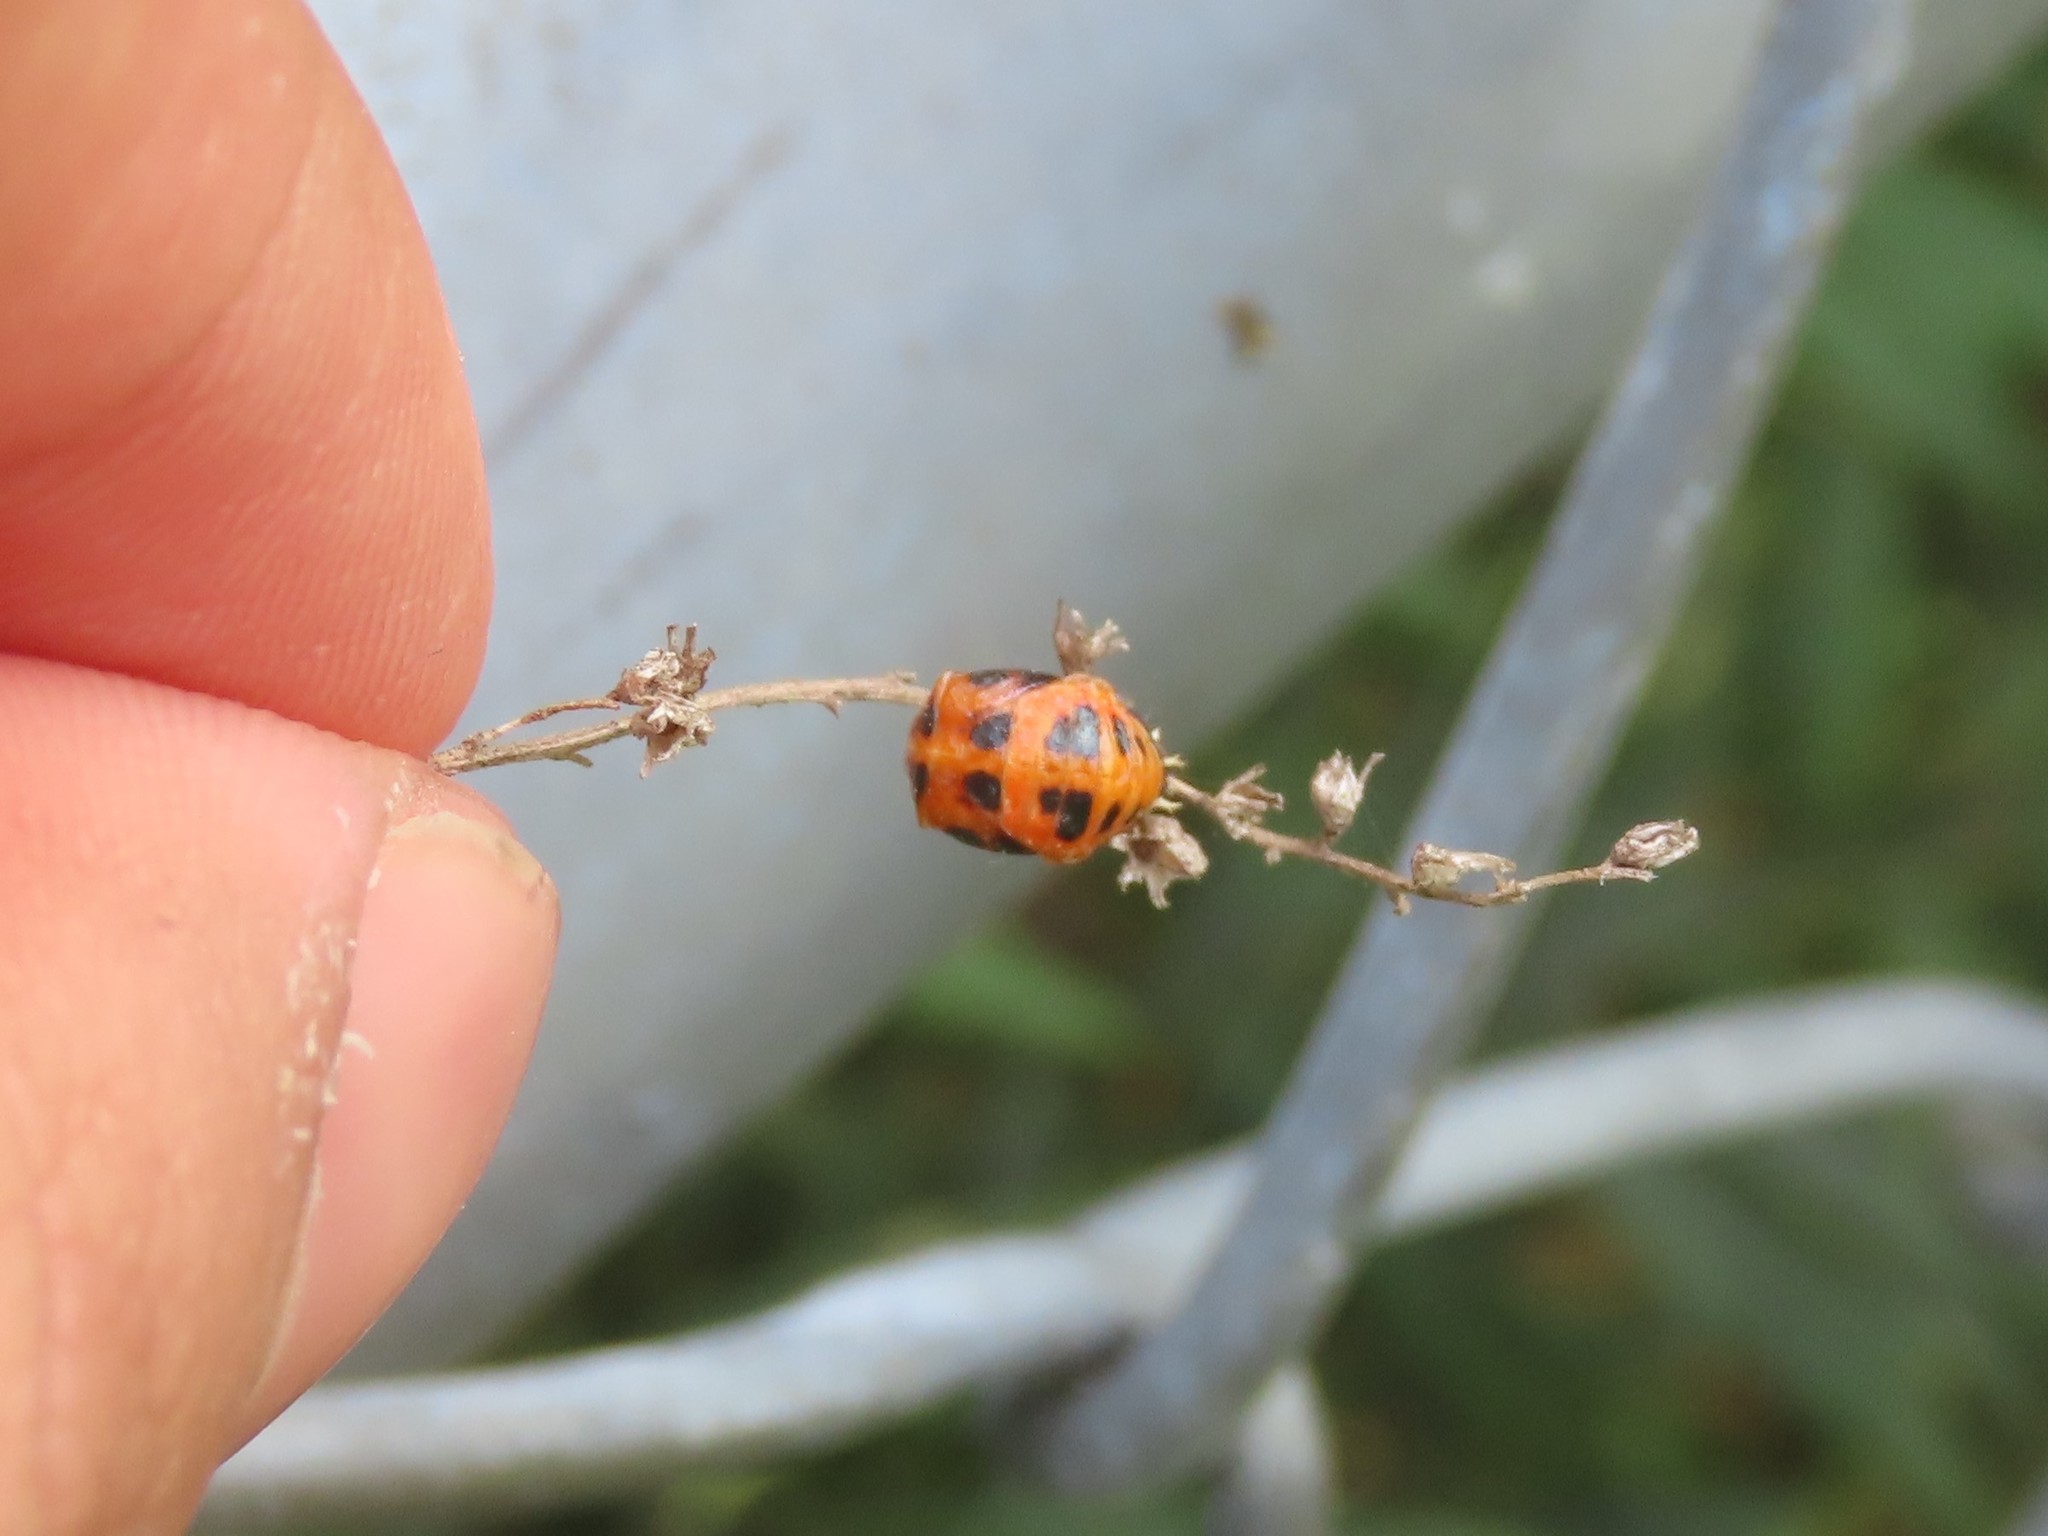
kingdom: Animalia
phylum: Arthropoda
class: Insecta
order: Coleoptera
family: Coccinellidae
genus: Harmonia
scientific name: Harmonia axyridis
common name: Harlequin ladybird
